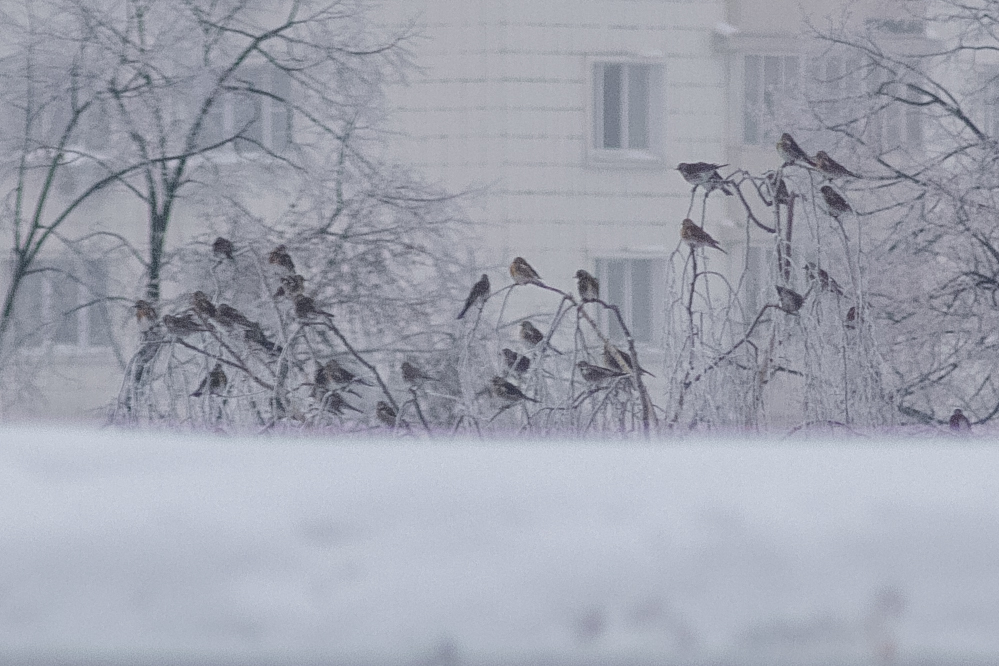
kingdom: Animalia
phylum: Chordata
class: Aves
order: Passeriformes
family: Turdidae
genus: Turdus
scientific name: Turdus pilaris
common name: Fieldfare
